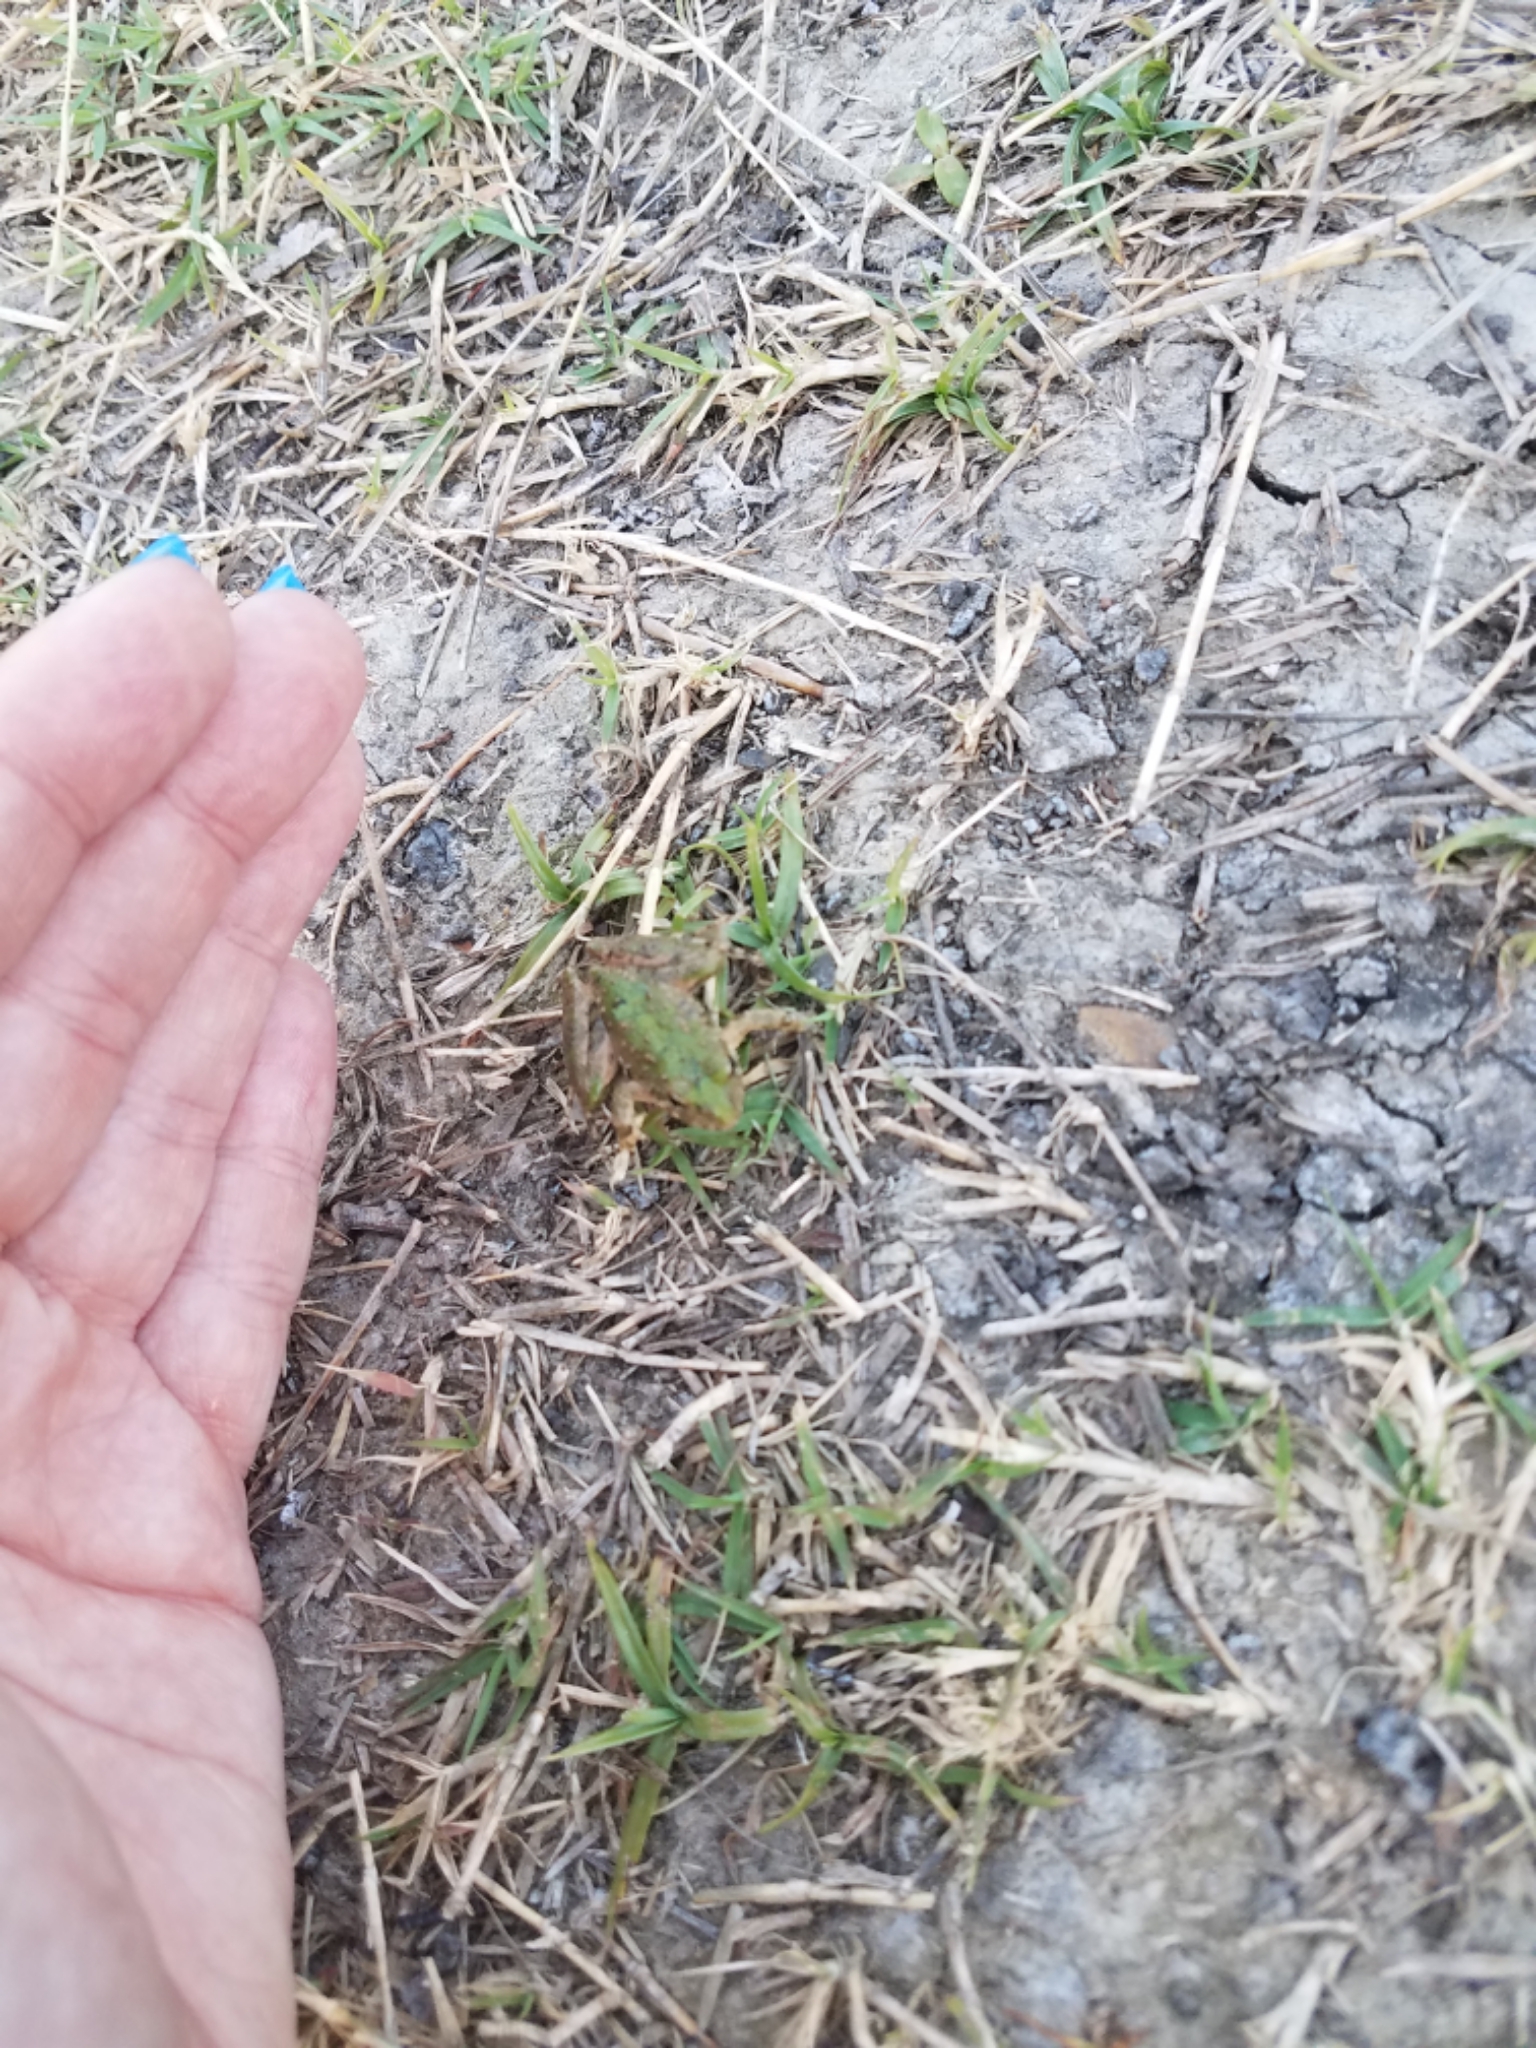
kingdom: Animalia
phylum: Chordata
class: Amphibia
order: Anura
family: Hylidae
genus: Acris
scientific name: Acris blanchardi
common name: Blanchard's cricket frog
